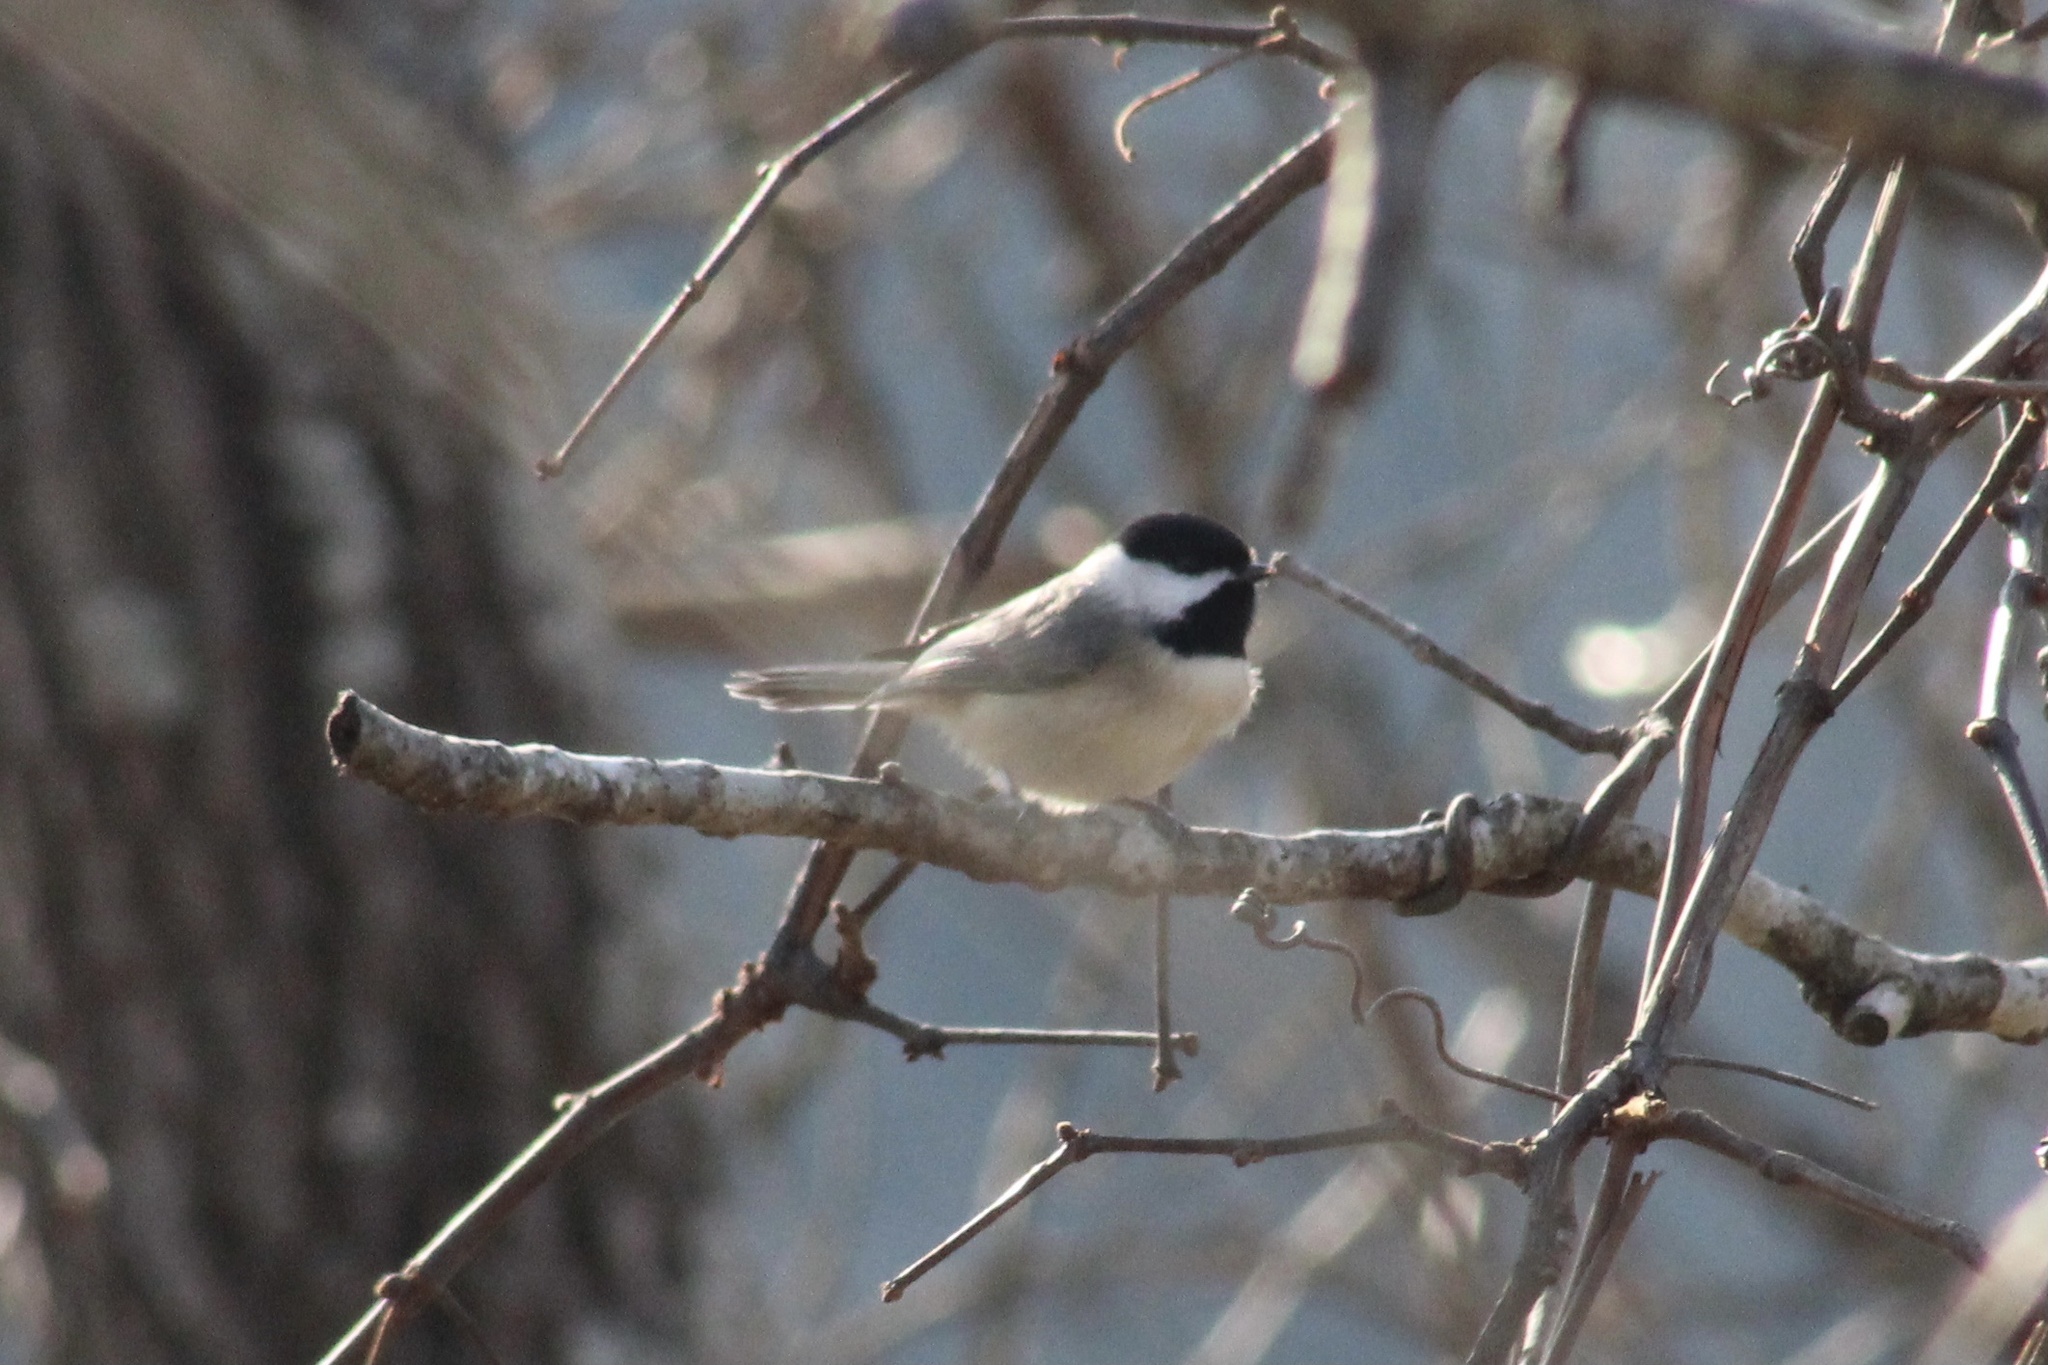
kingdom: Animalia
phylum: Chordata
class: Aves
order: Passeriformes
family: Paridae
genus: Poecile
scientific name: Poecile carolinensis
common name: Carolina chickadee
